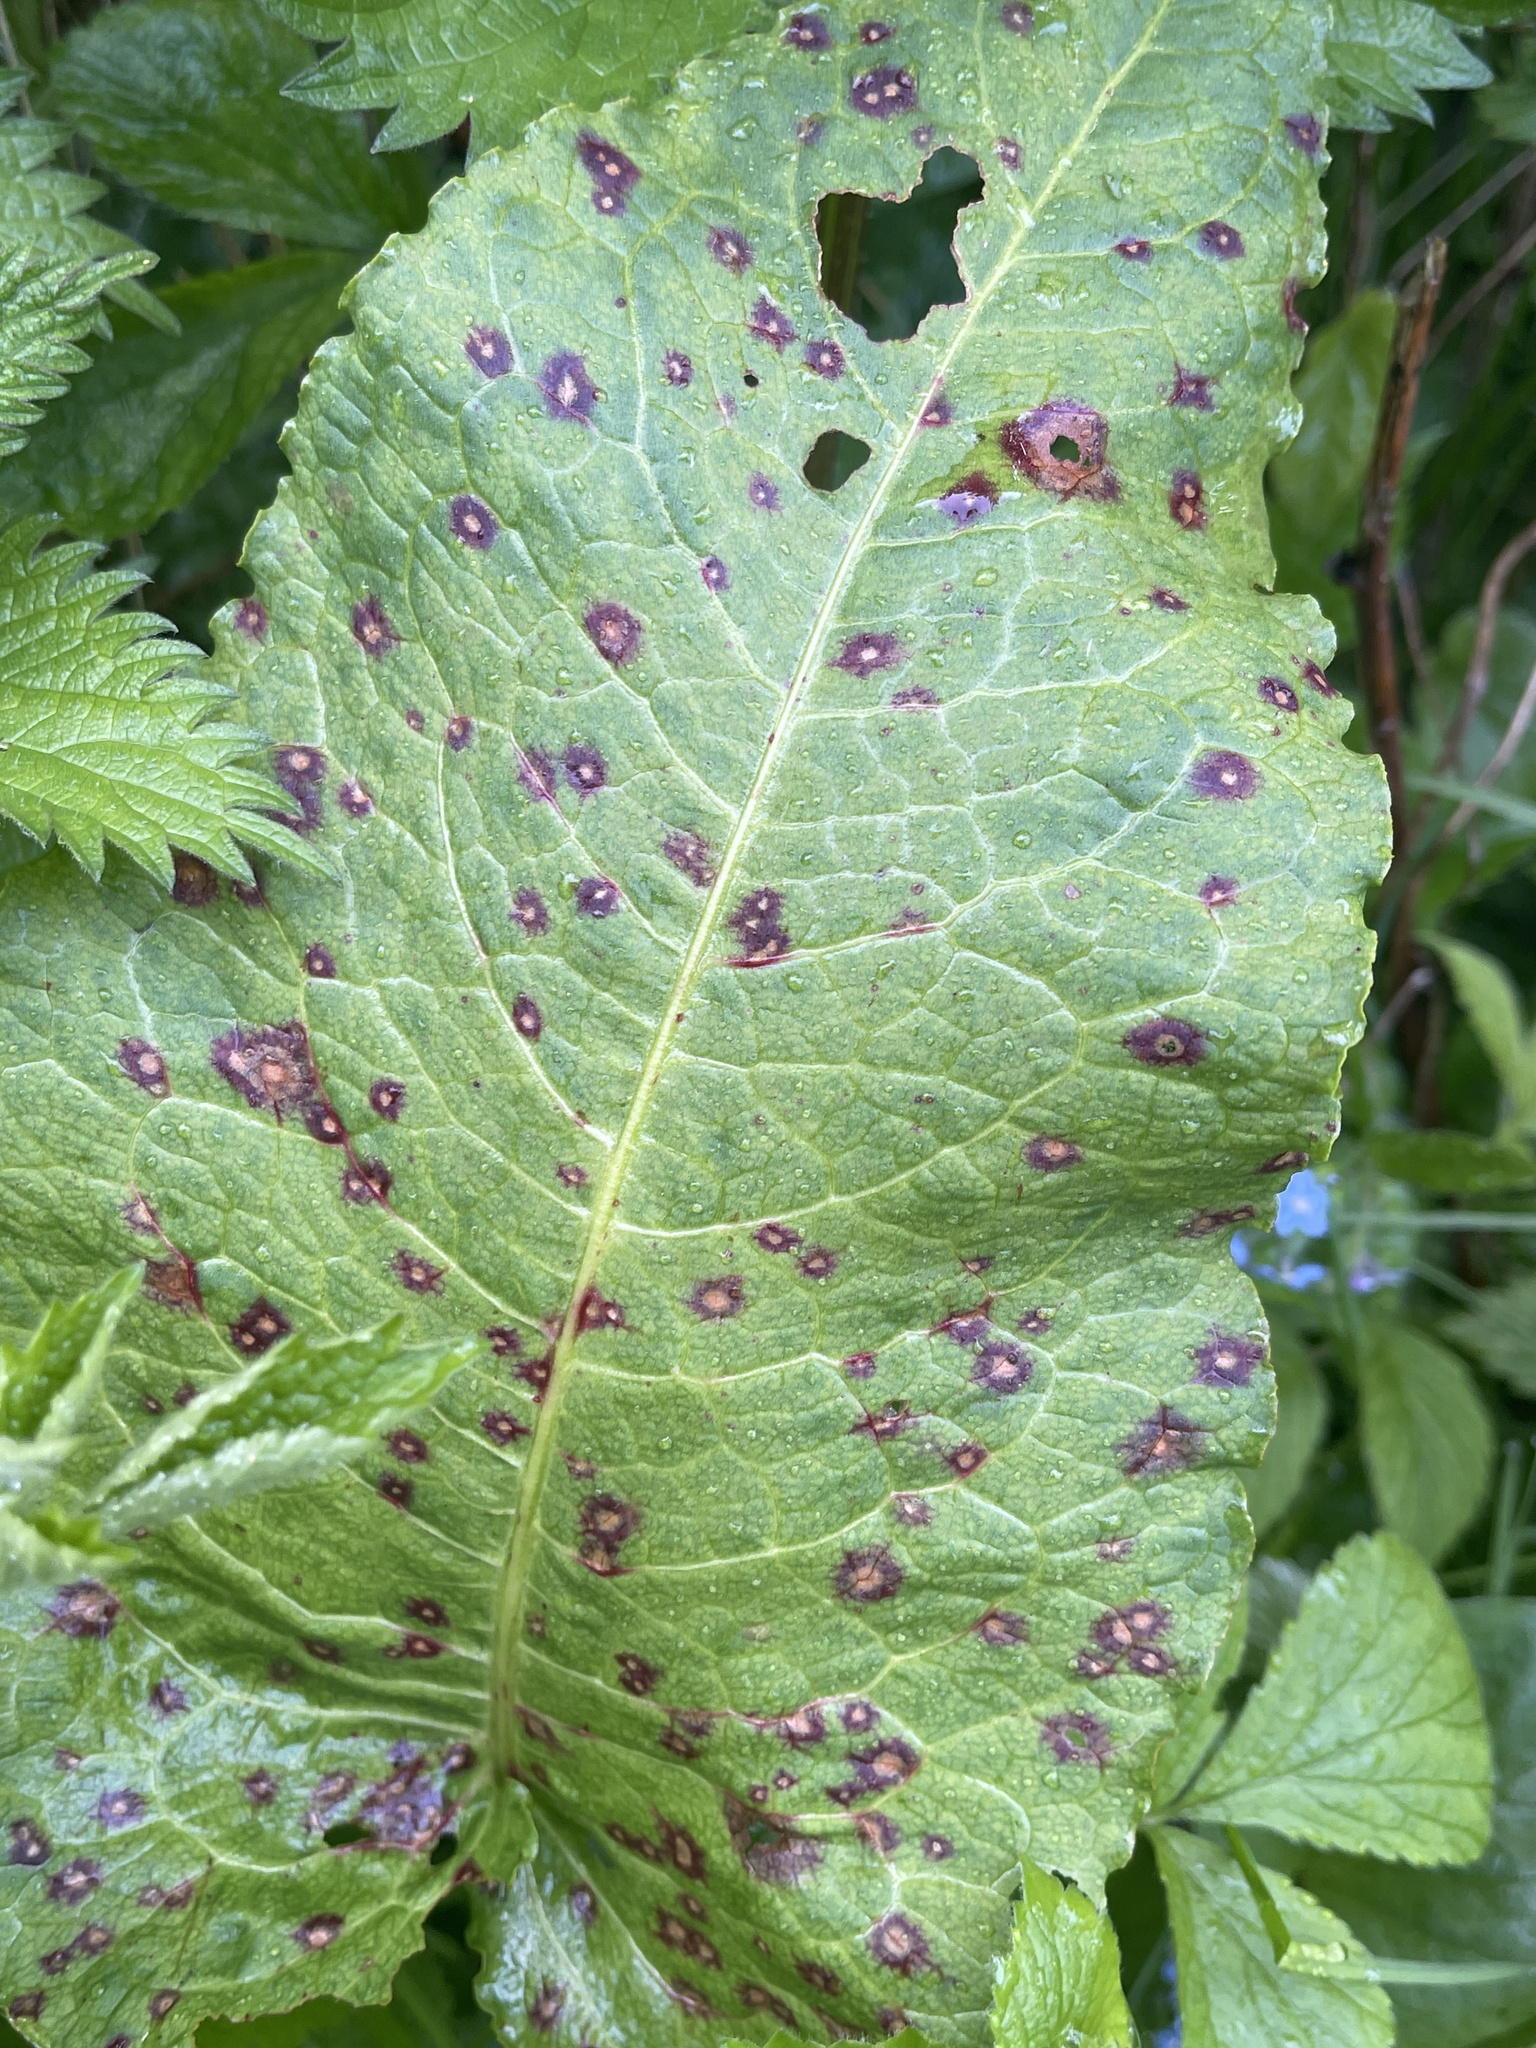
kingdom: Fungi
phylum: Ascomycota
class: Dothideomycetes
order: Mycosphaerellales
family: Mycosphaerellaceae
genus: Ramularia
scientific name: Ramularia rubella
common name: Red dock spot
